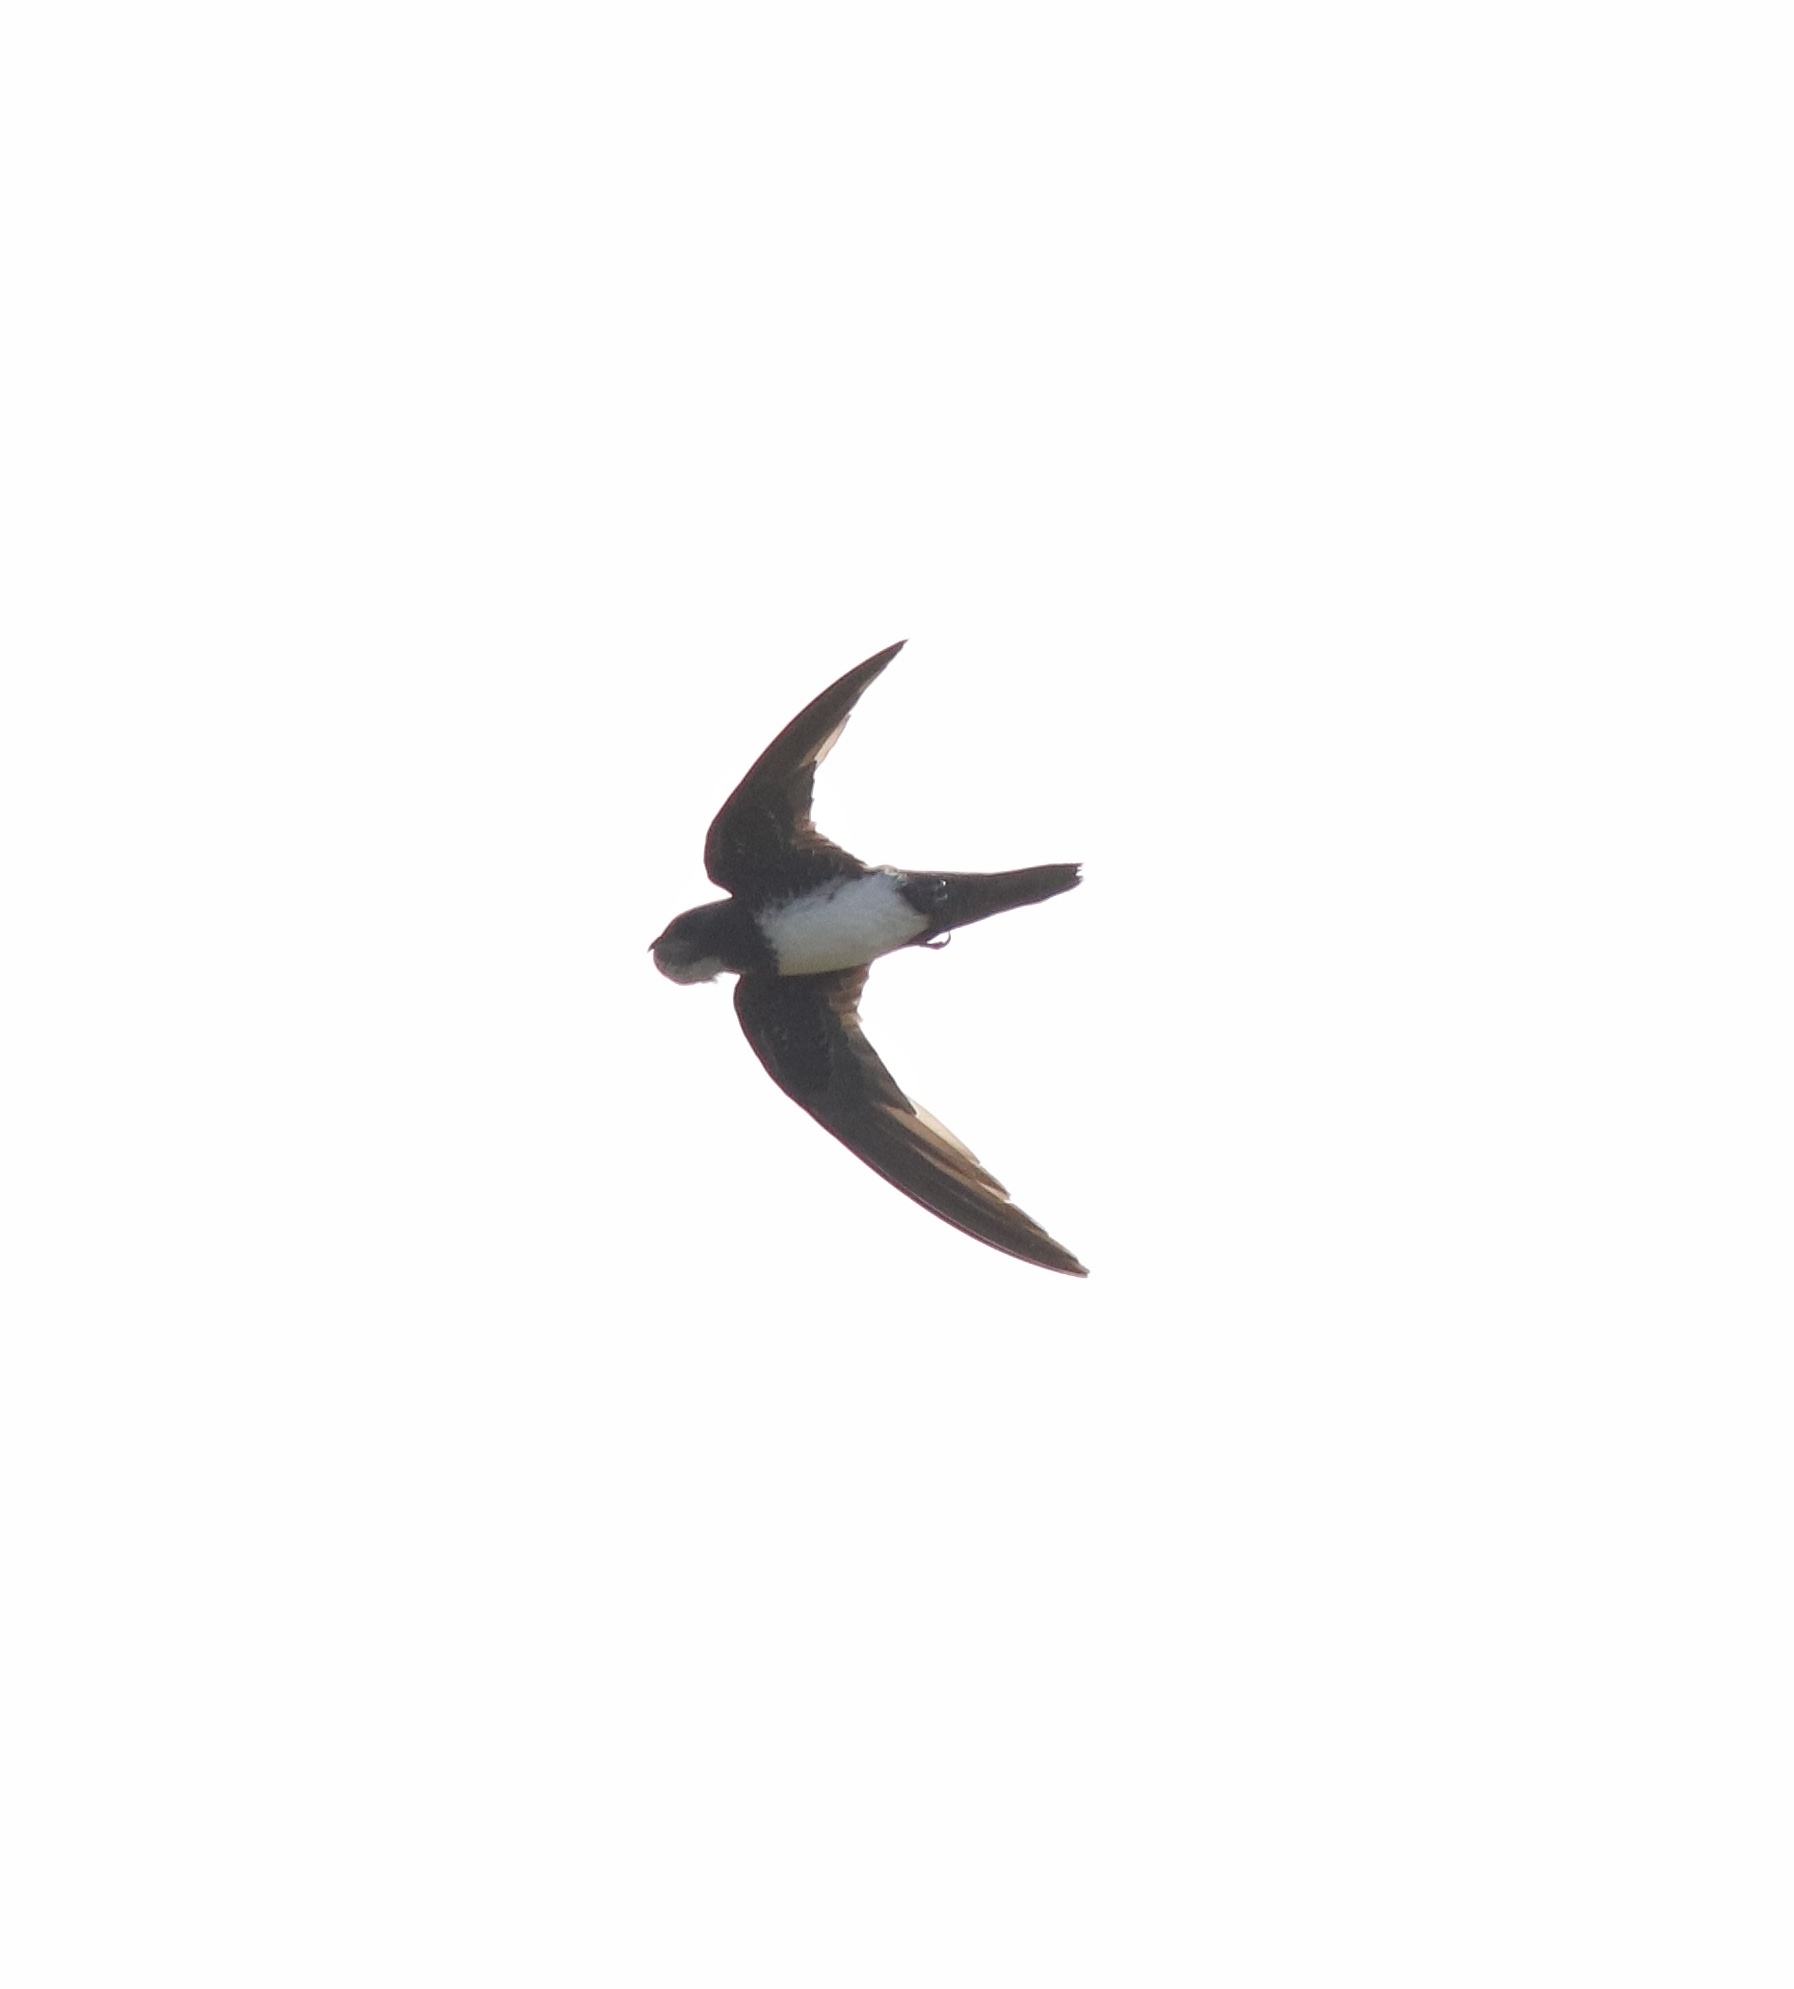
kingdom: Animalia
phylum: Chordata
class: Aves
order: Apodiformes
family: Apodidae
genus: Tachymarptis
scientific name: Tachymarptis melba
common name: Alpine swift
